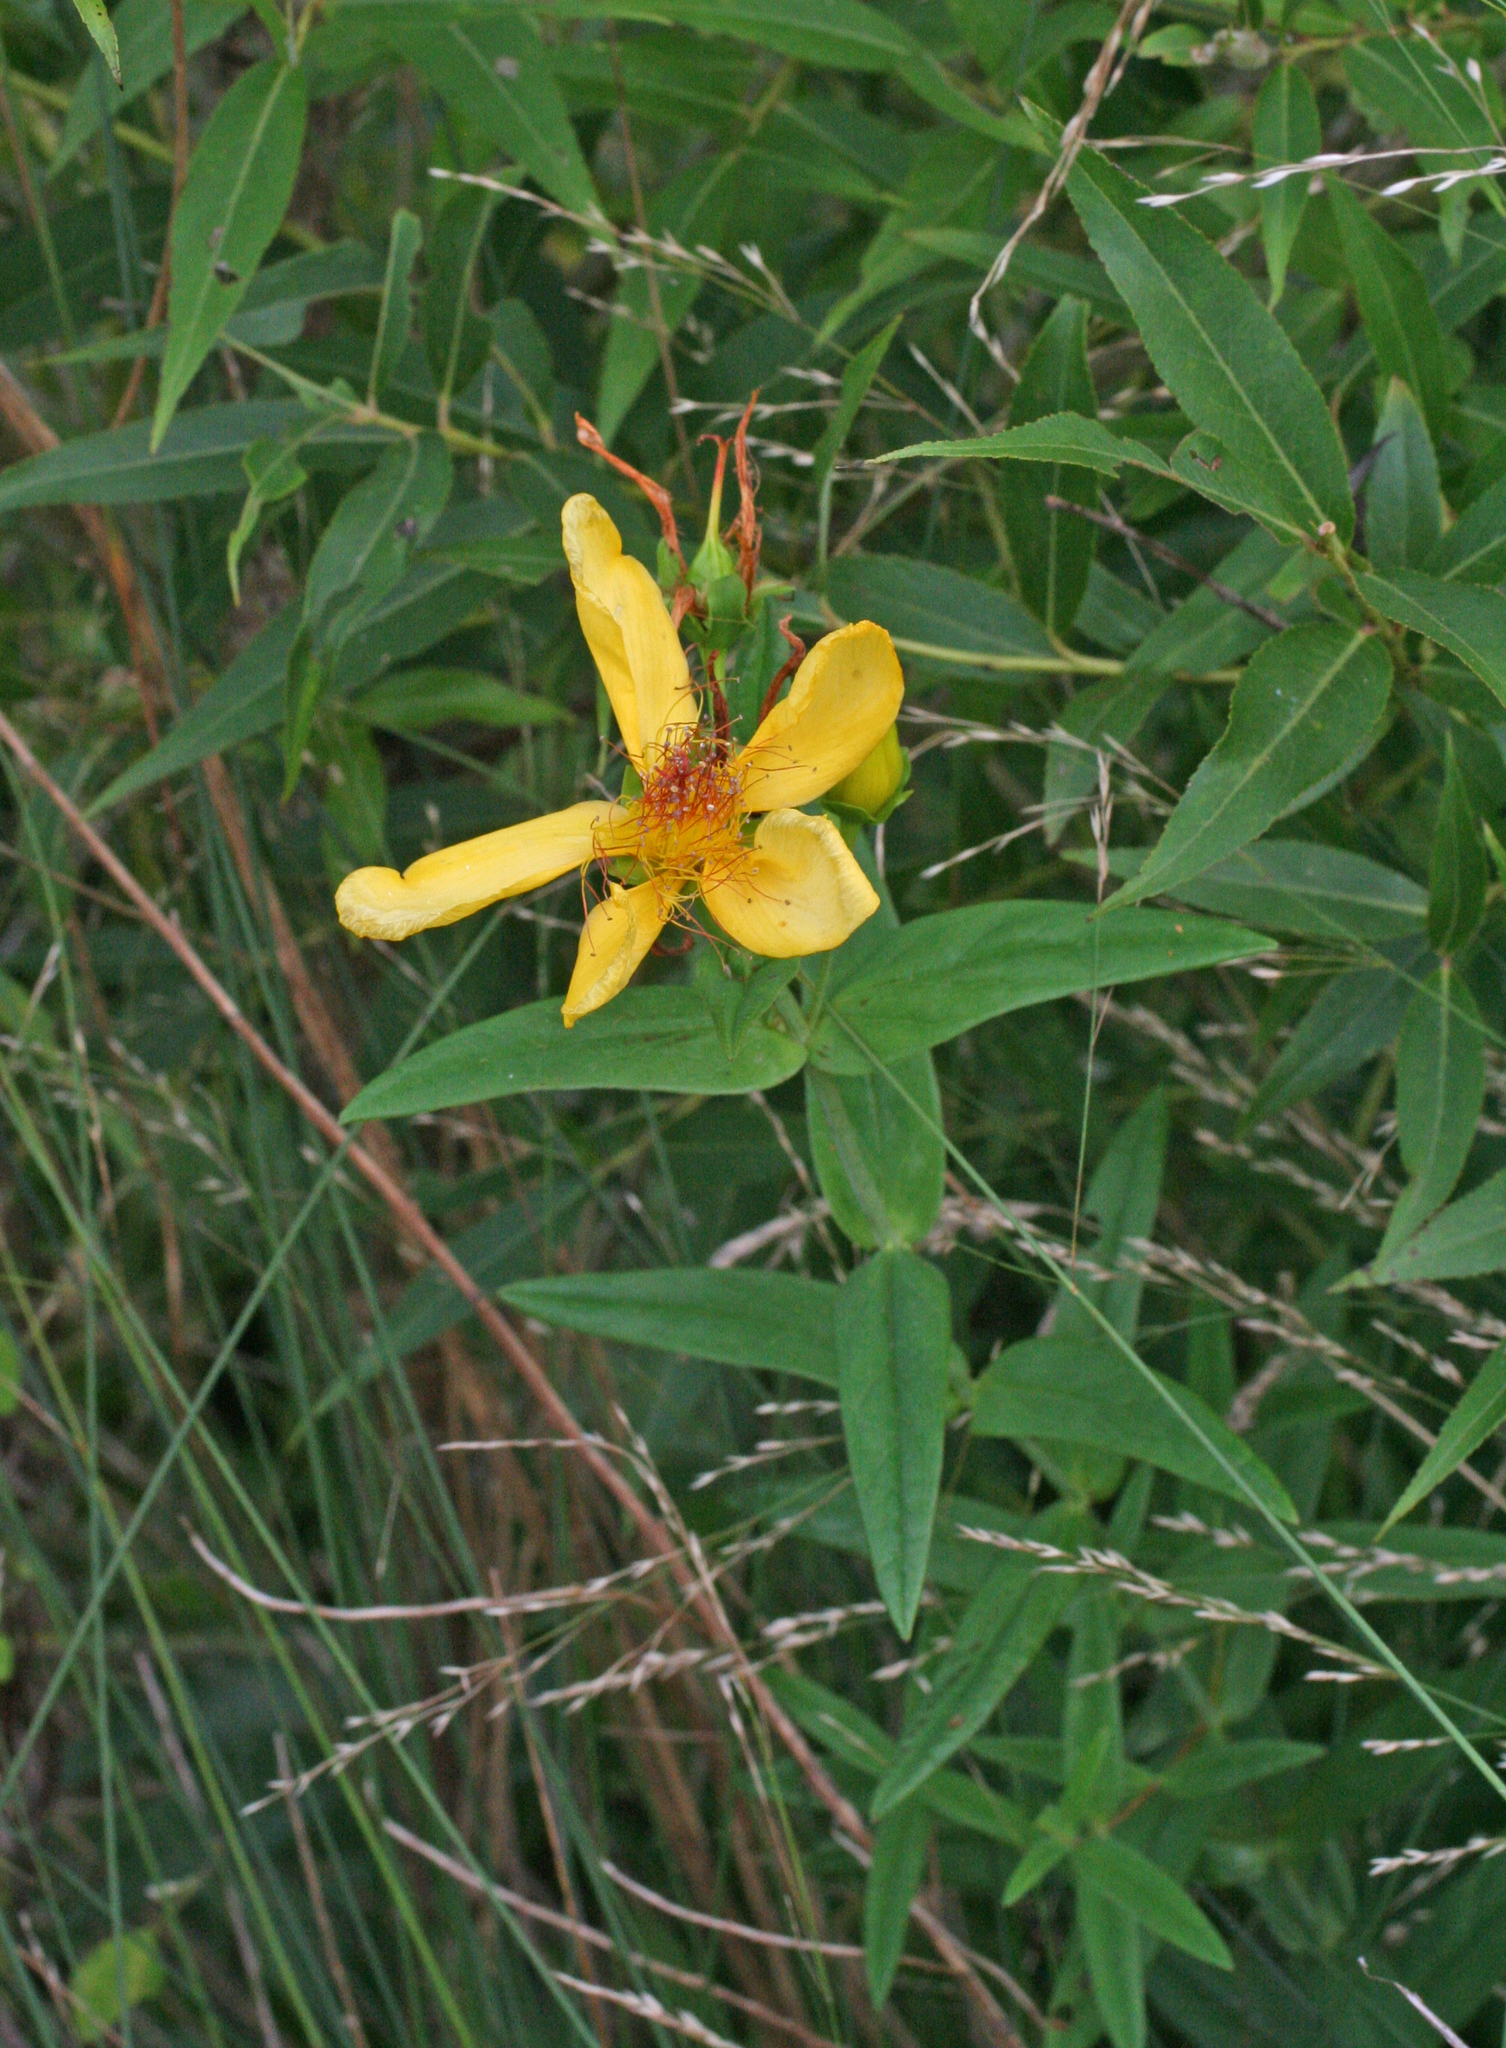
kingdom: Plantae
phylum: Tracheophyta
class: Magnoliopsida
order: Malpighiales
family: Hypericaceae
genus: Hypericum
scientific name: Hypericum ascyron
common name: Giant st. john's-wort
